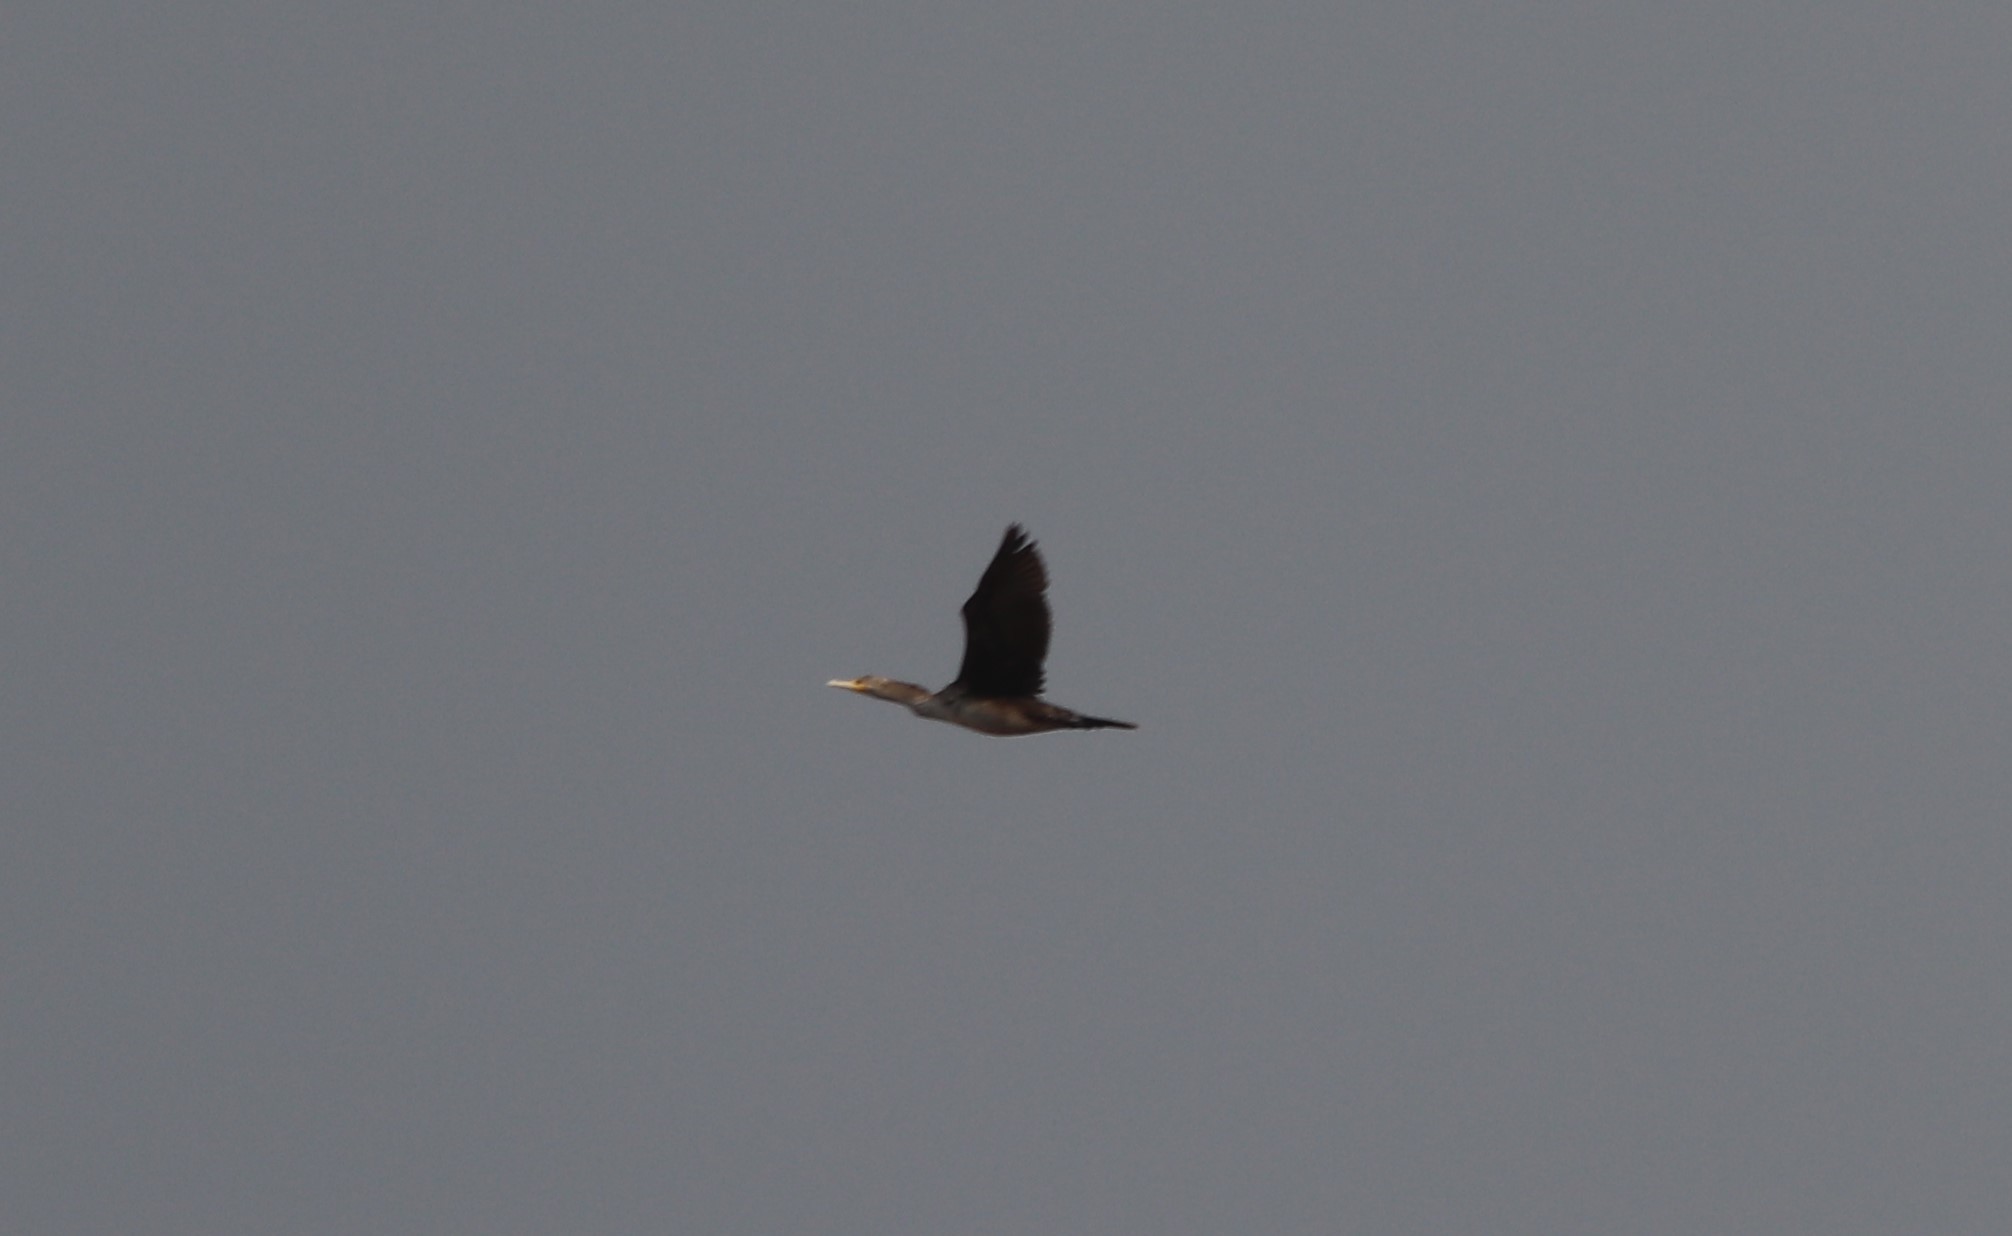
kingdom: Animalia
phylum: Chordata
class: Aves
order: Suliformes
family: Phalacrocoracidae
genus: Phalacrocorax
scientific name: Phalacrocorax auritus
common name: Double-crested cormorant
